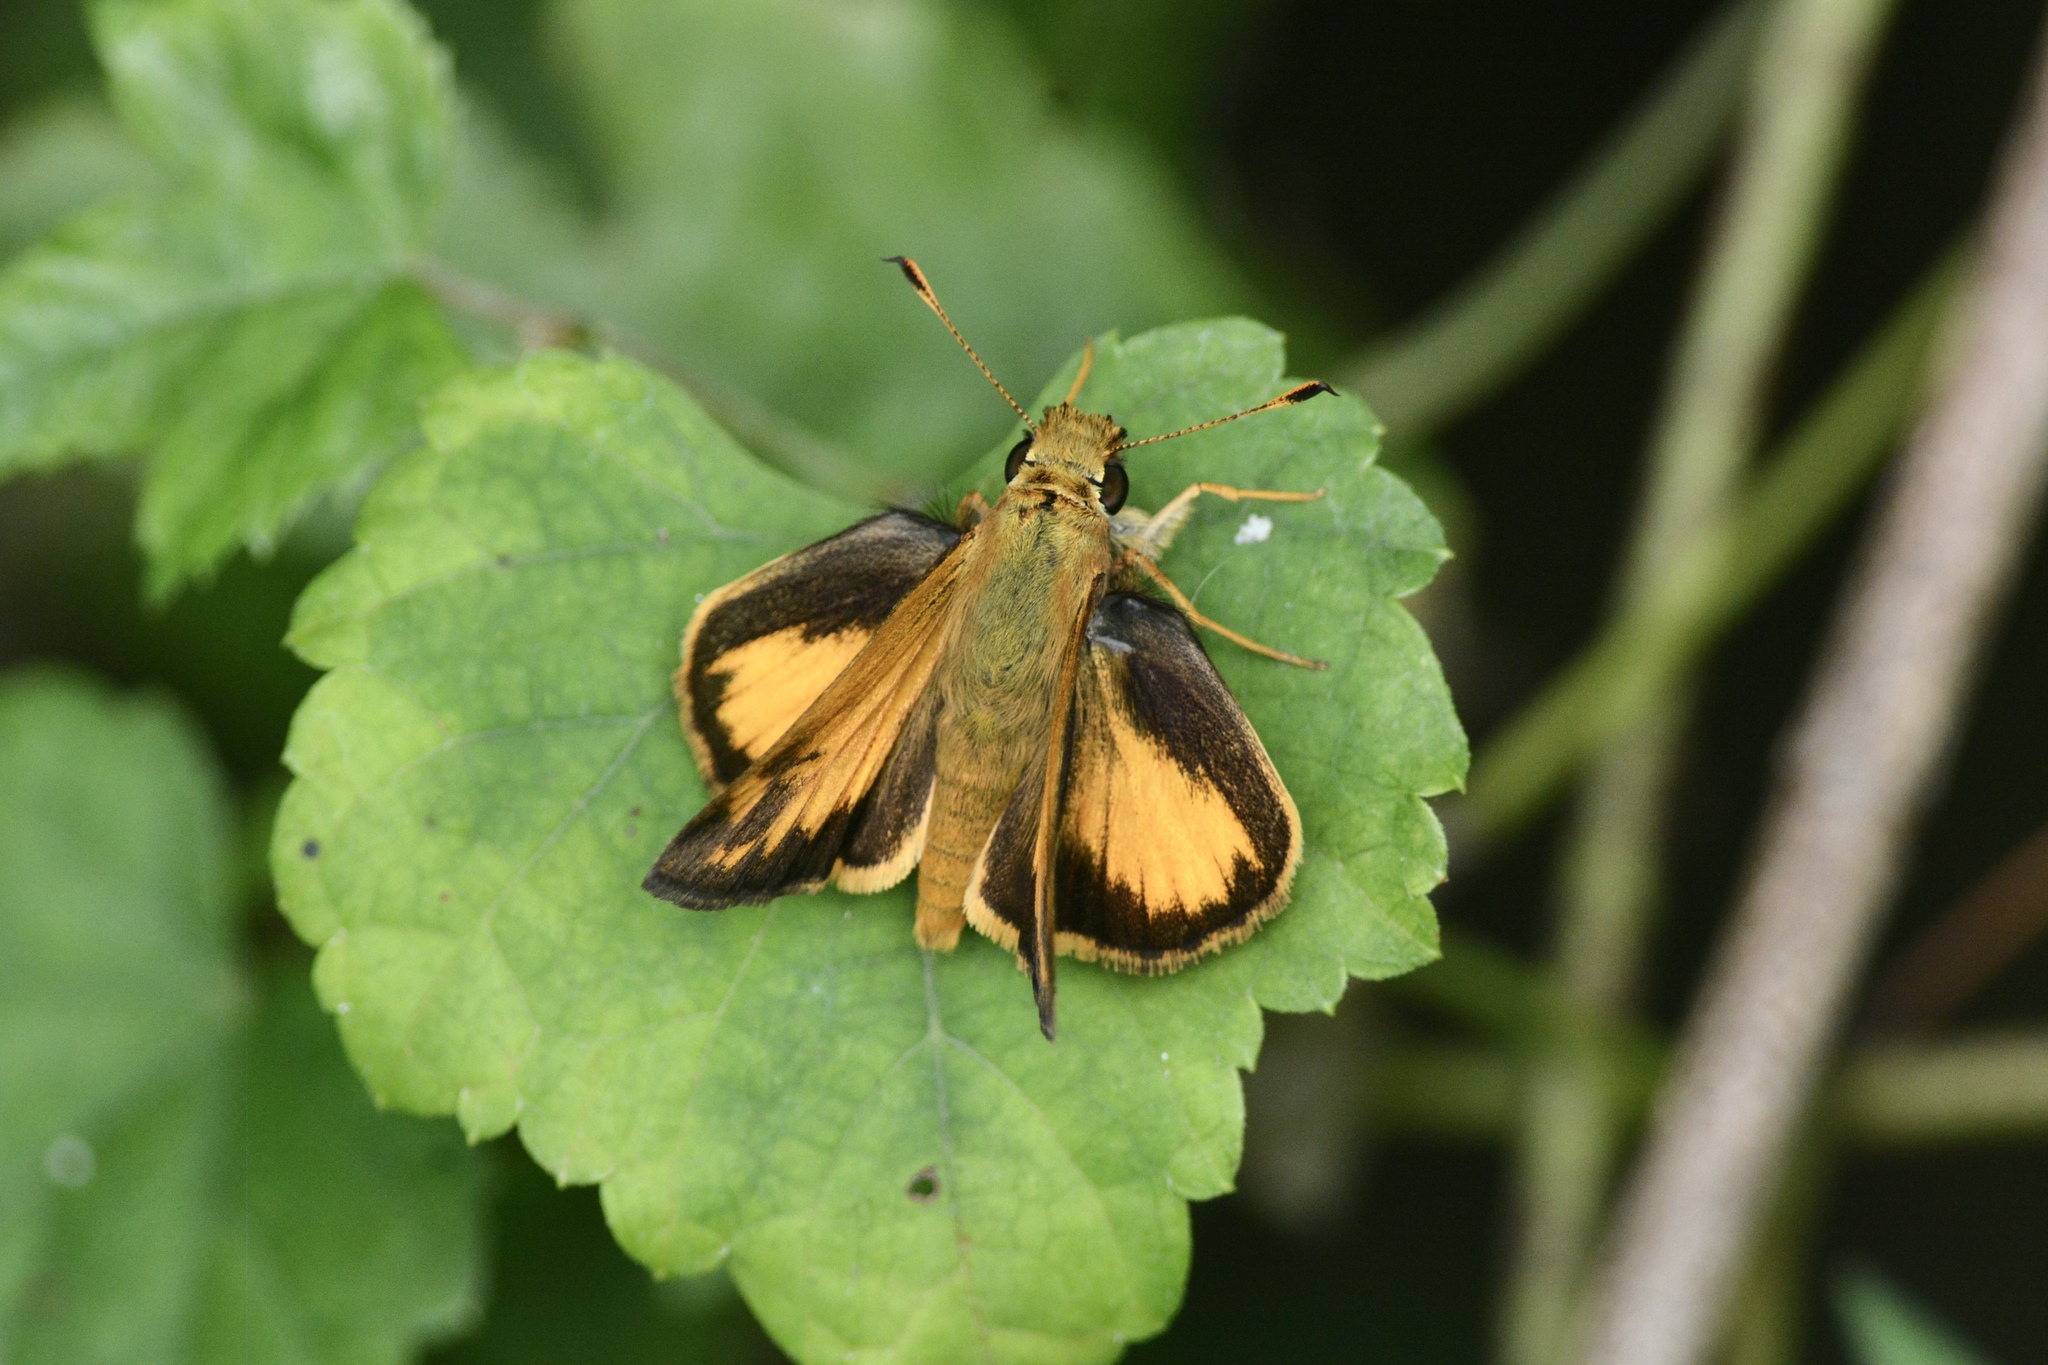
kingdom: Animalia
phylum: Arthropoda
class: Insecta
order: Lepidoptera
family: Hesperiidae
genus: Lon
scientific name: Lon zabulon
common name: Zabulon skipper
